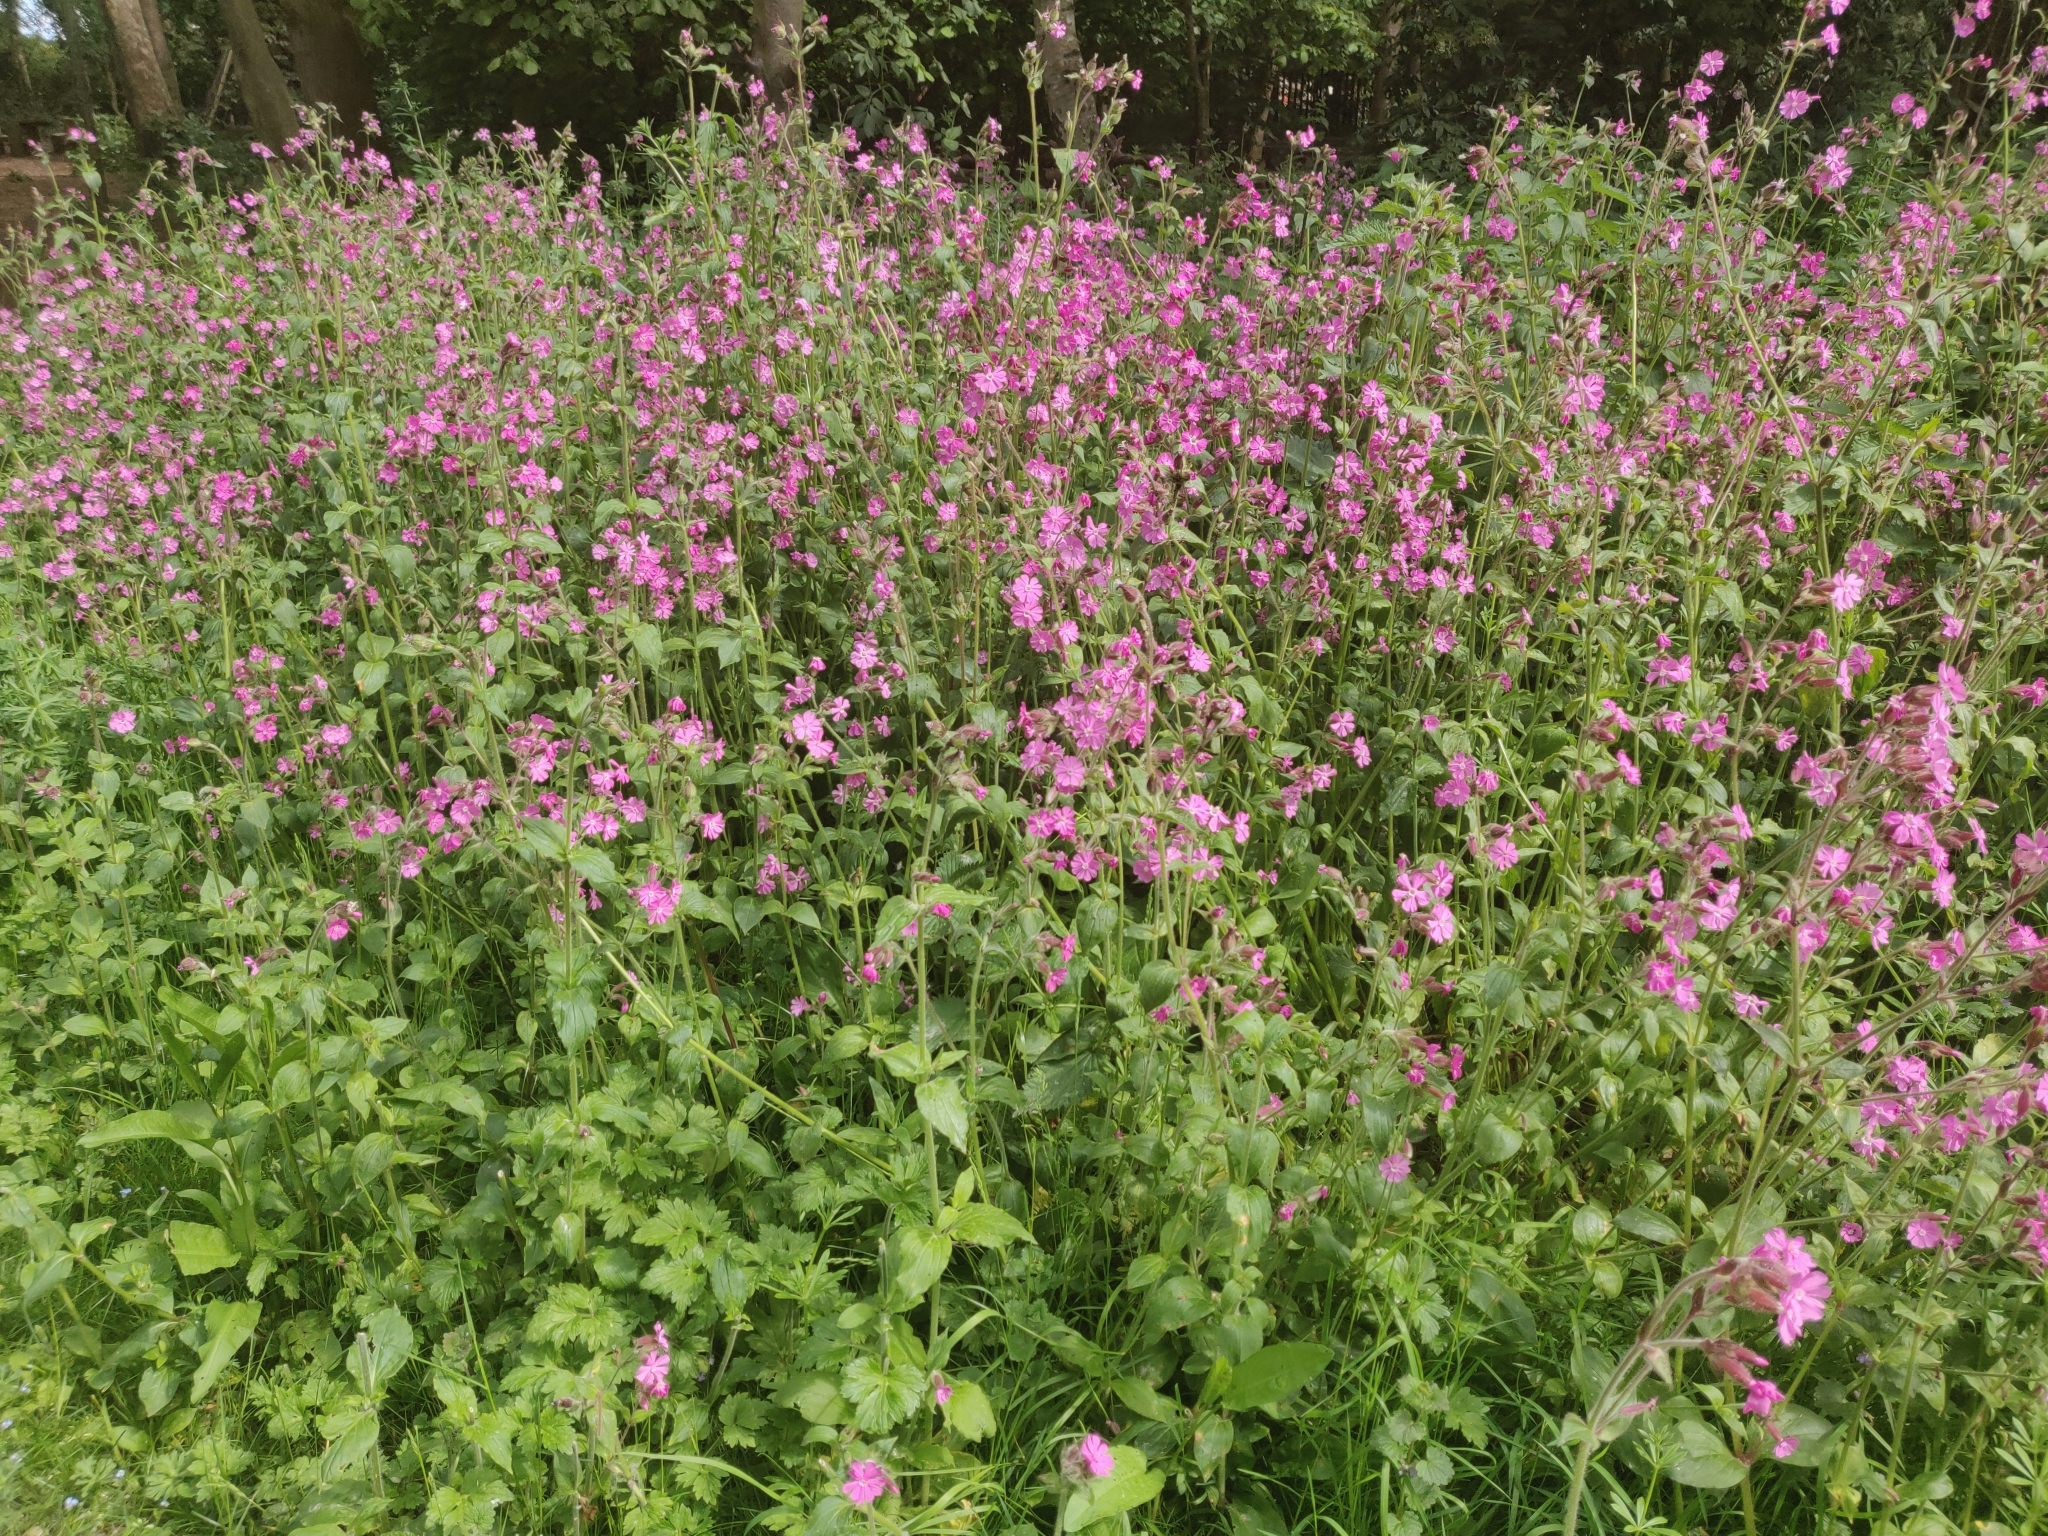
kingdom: Plantae
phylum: Tracheophyta
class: Magnoliopsida
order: Caryophyllales
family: Caryophyllaceae
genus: Silene
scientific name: Silene dioica
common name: Red campion
